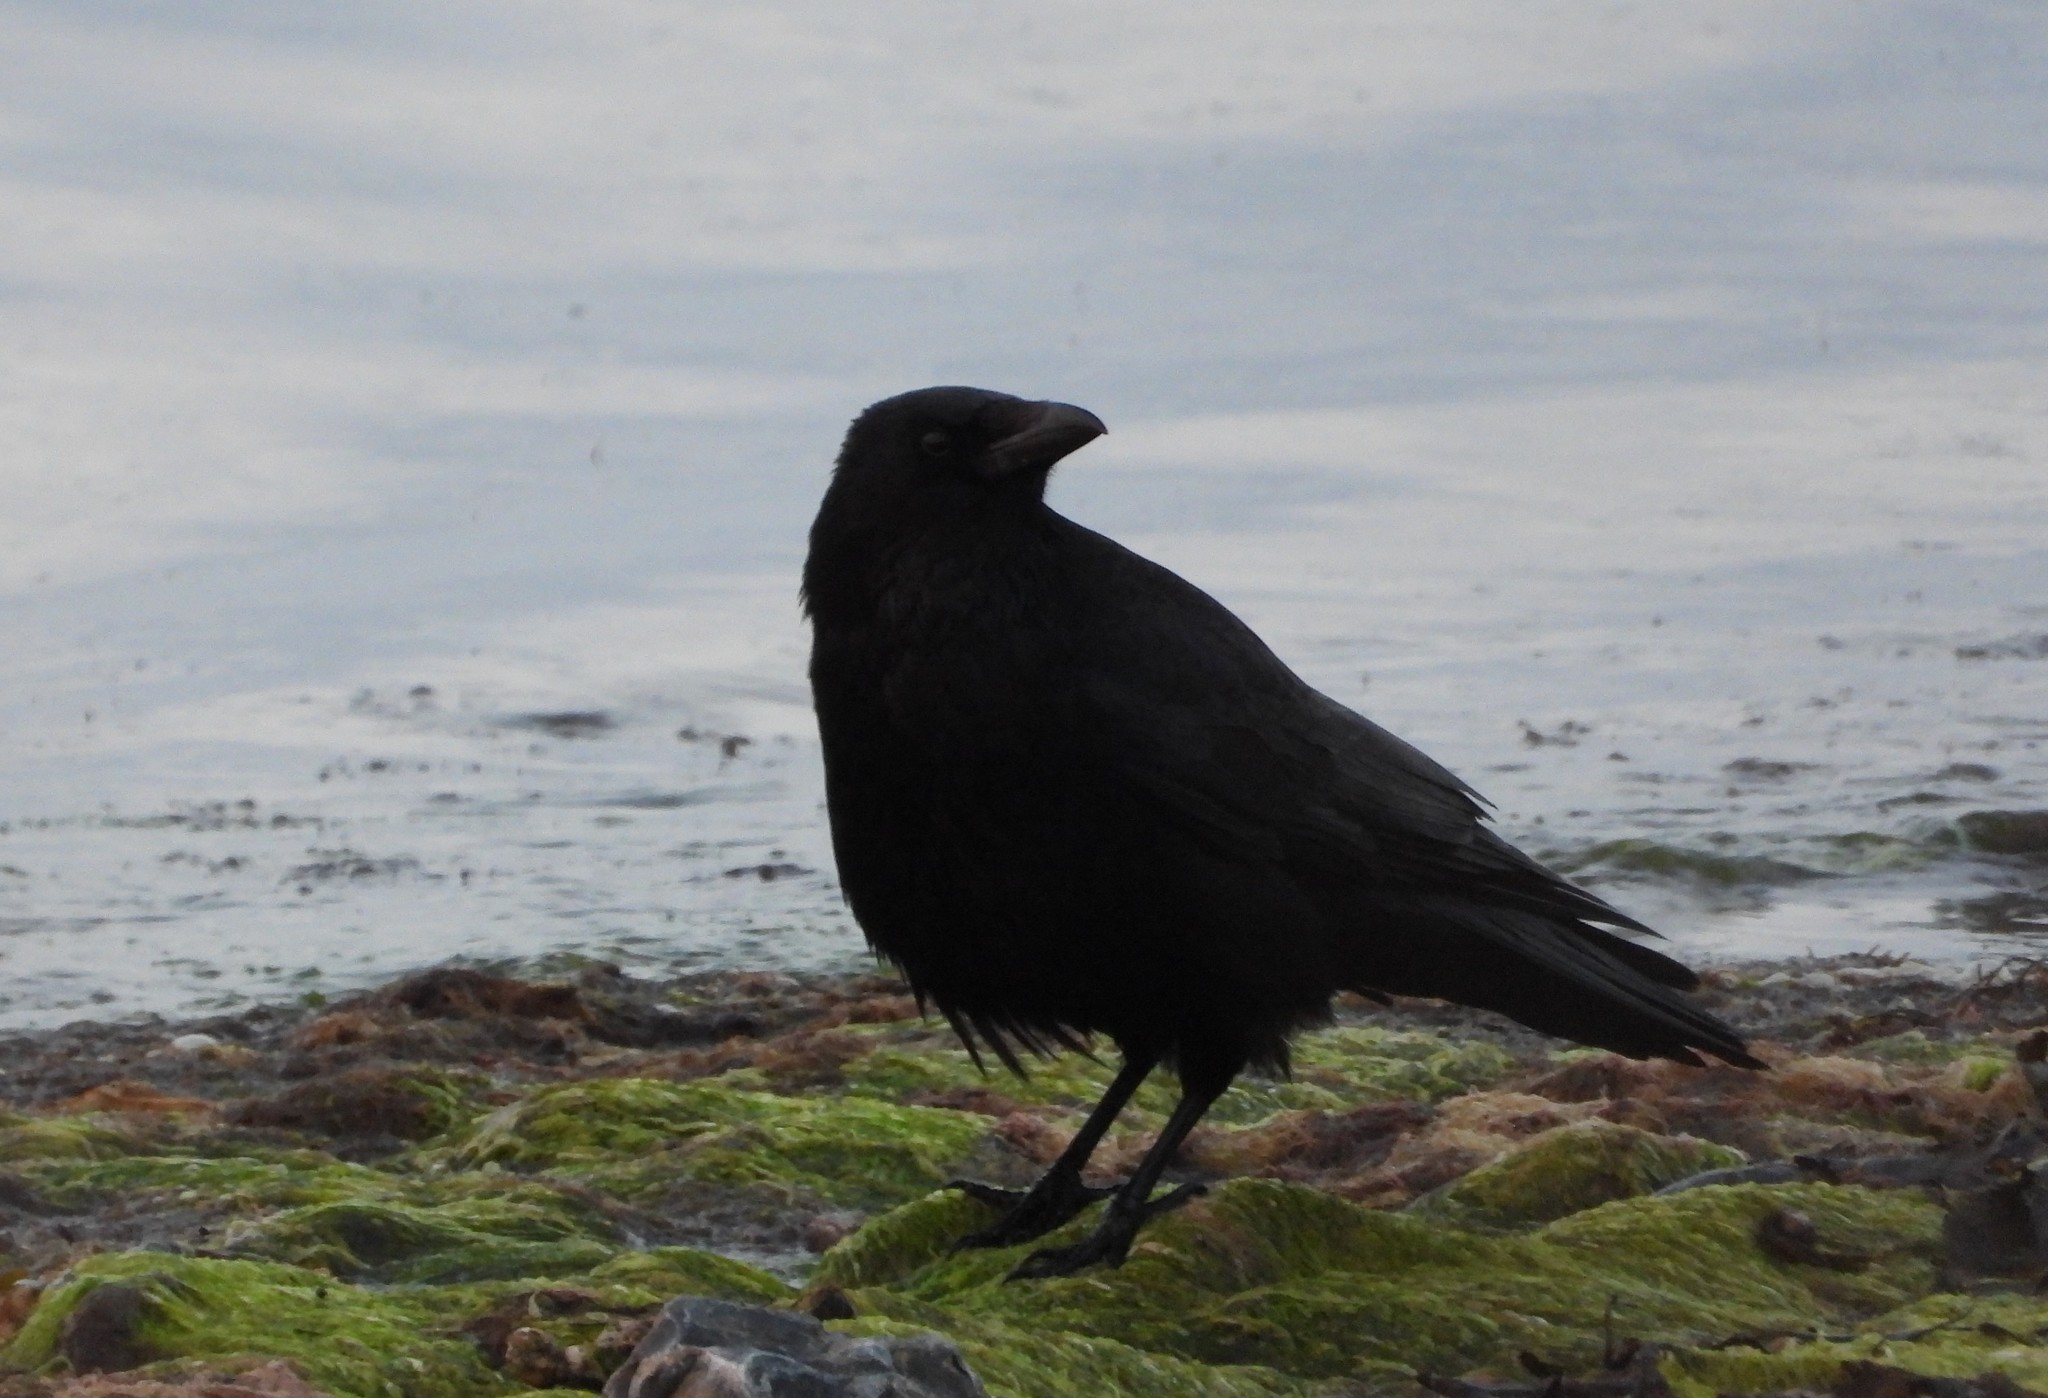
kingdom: Animalia
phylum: Chordata
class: Aves
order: Passeriformes
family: Corvidae
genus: Corvus
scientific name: Corvus corone
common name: Carrion crow
